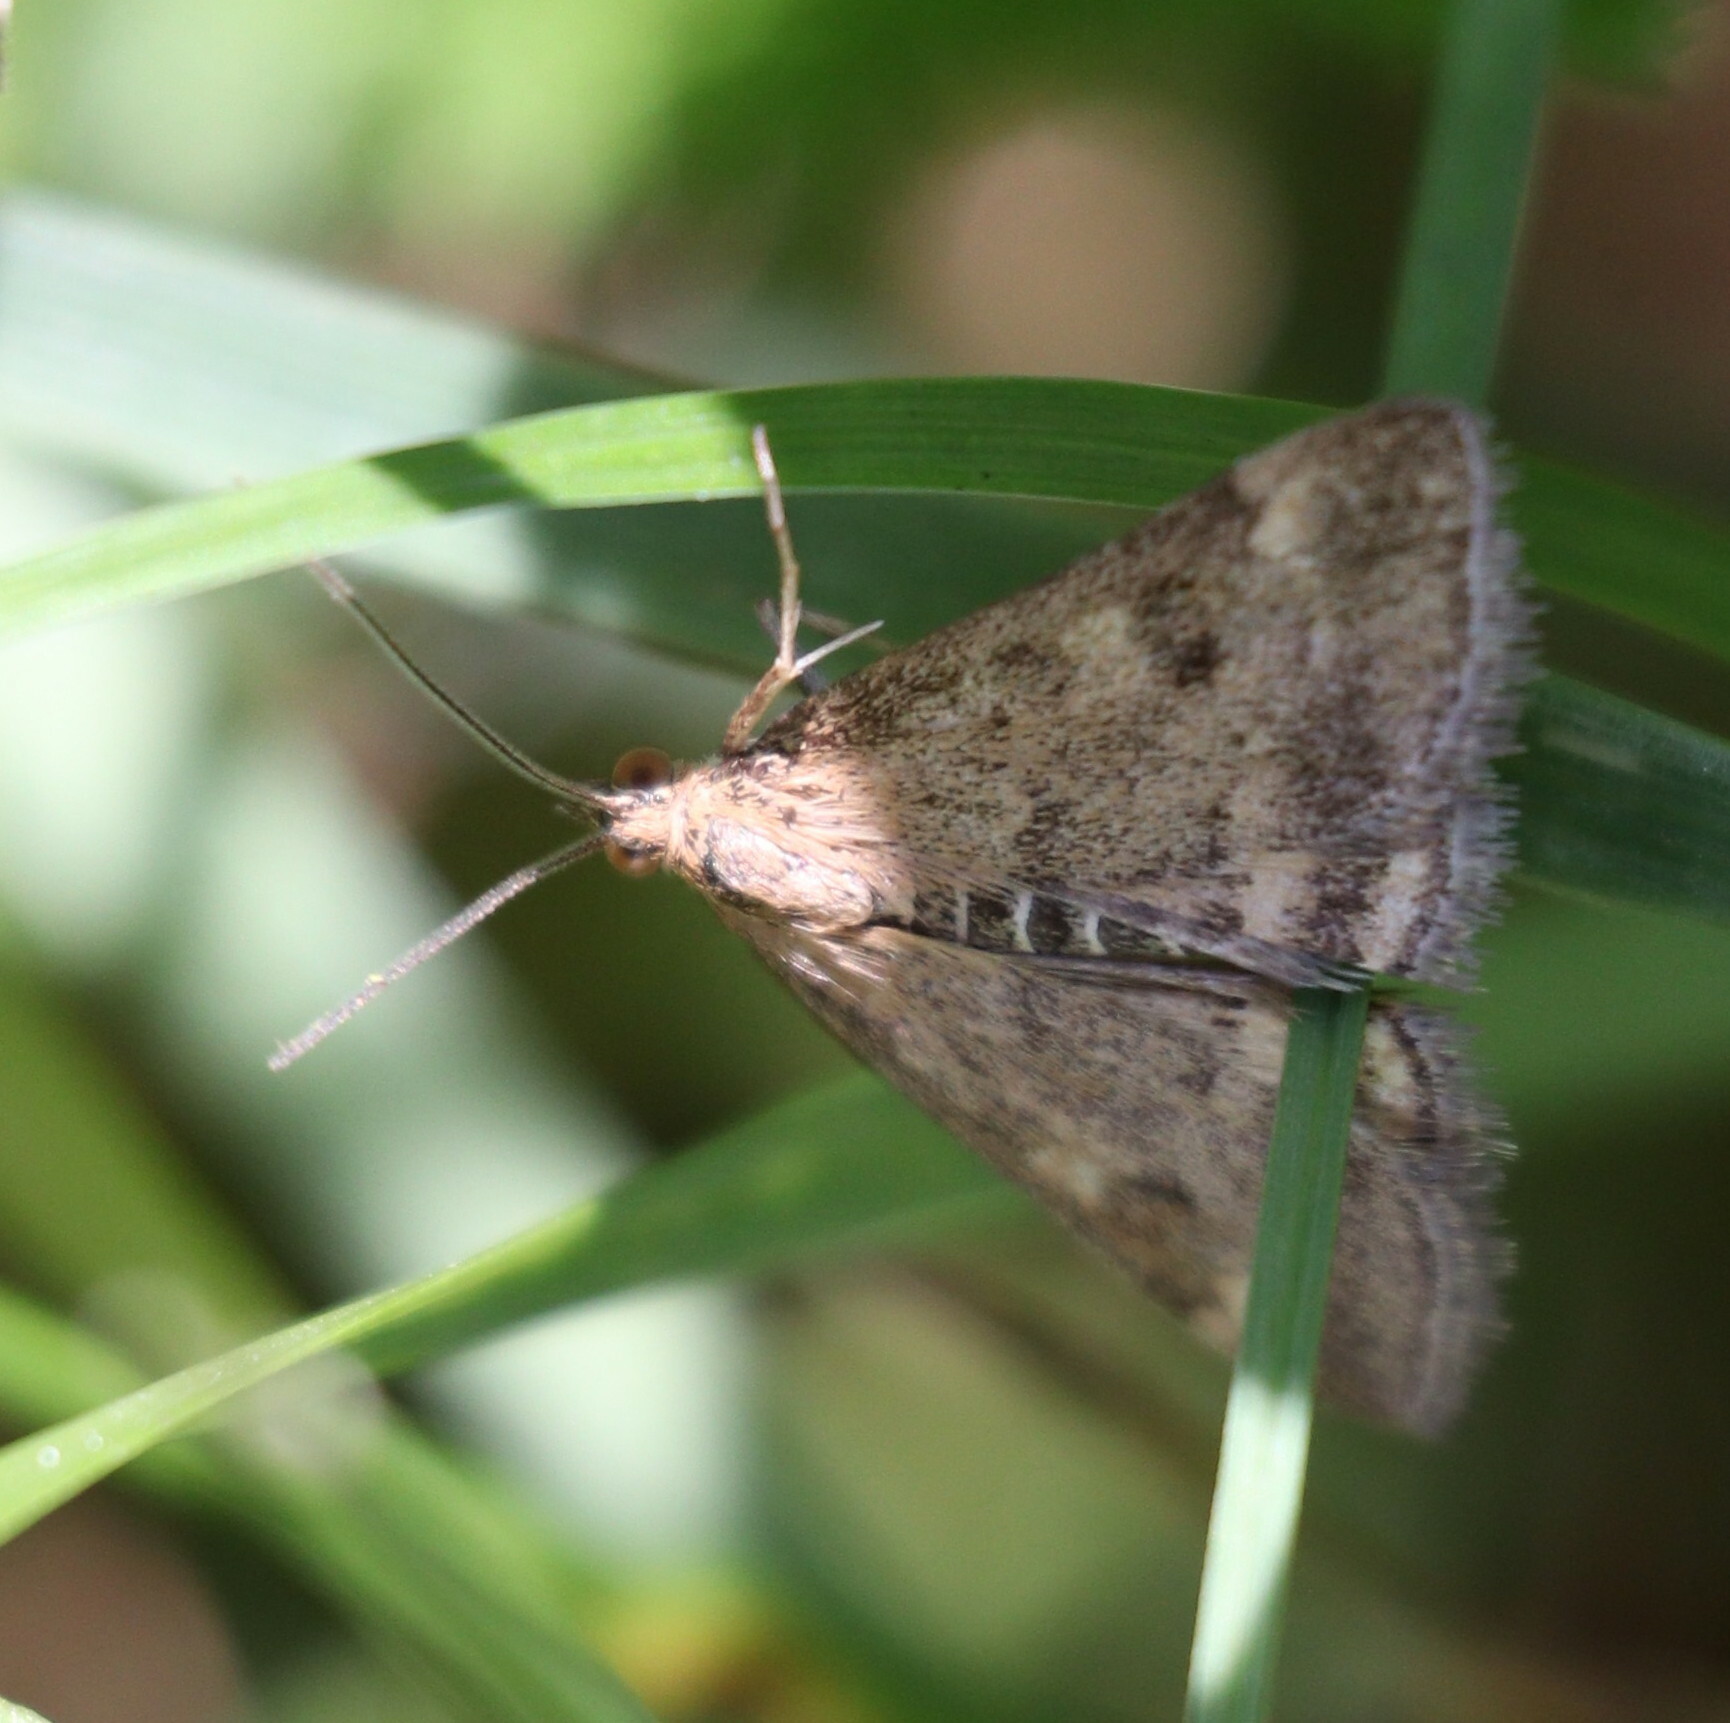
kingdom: Animalia
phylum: Arthropoda
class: Insecta
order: Lepidoptera
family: Crambidae
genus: Pyrausta
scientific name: Pyrausta despicata
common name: Straw-barred pearl
